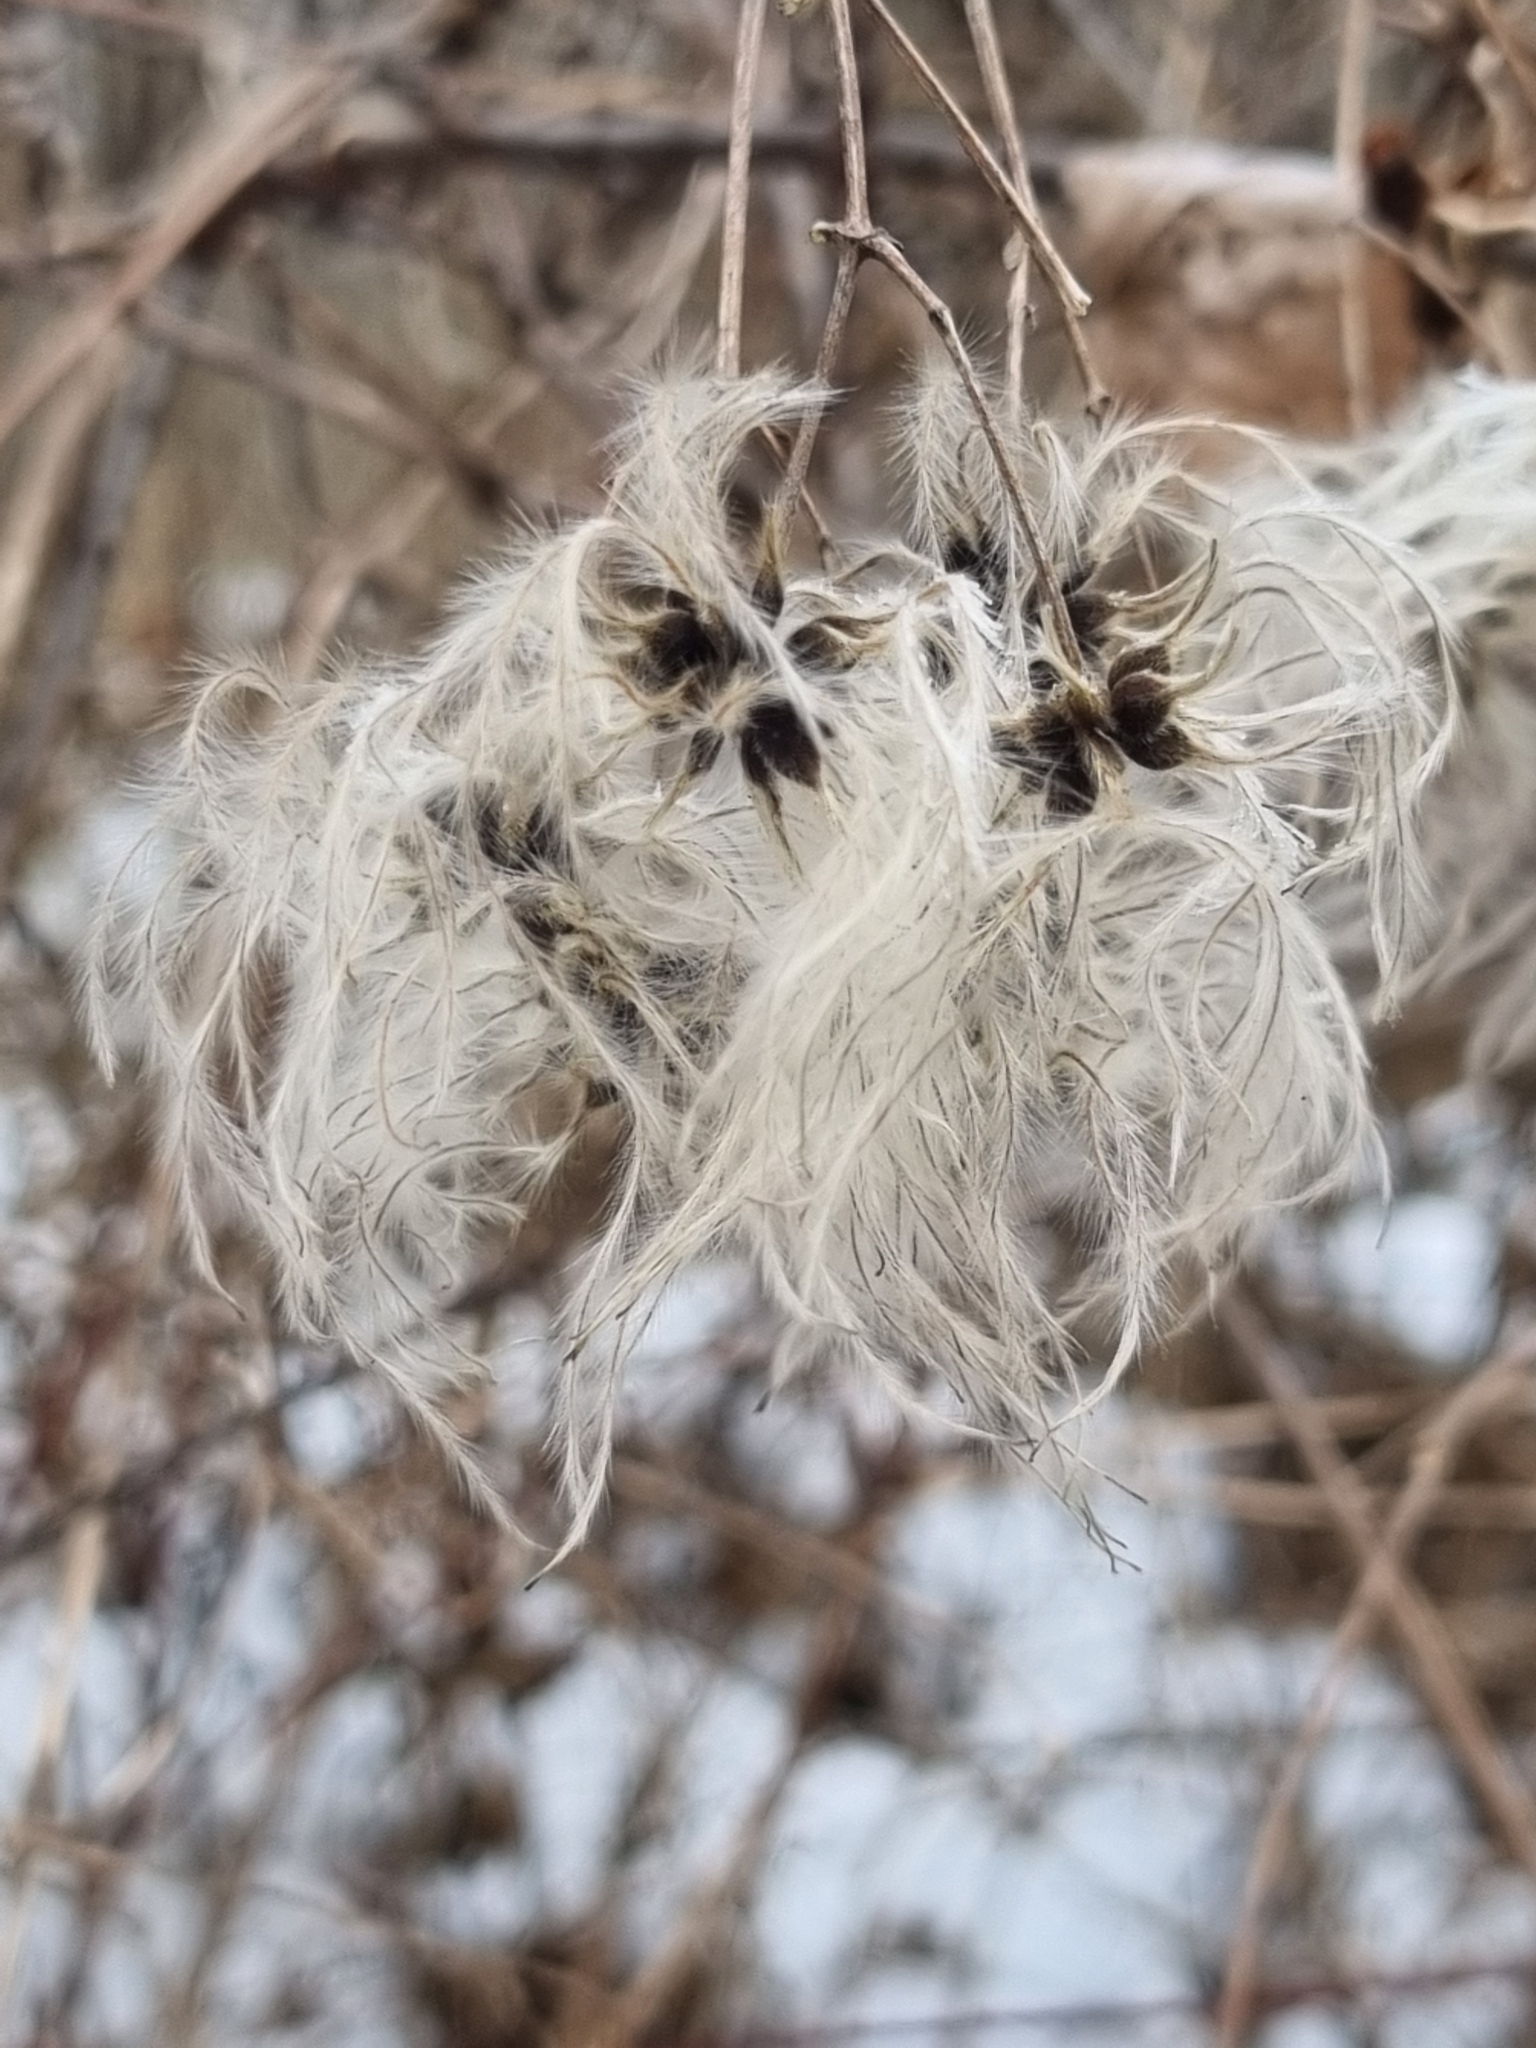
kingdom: Plantae
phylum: Tracheophyta
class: Magnoliopsida
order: Ranunculales
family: Ranunculaceae
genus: Clematis
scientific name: Clematis vitalba
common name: Evergreen clematis
